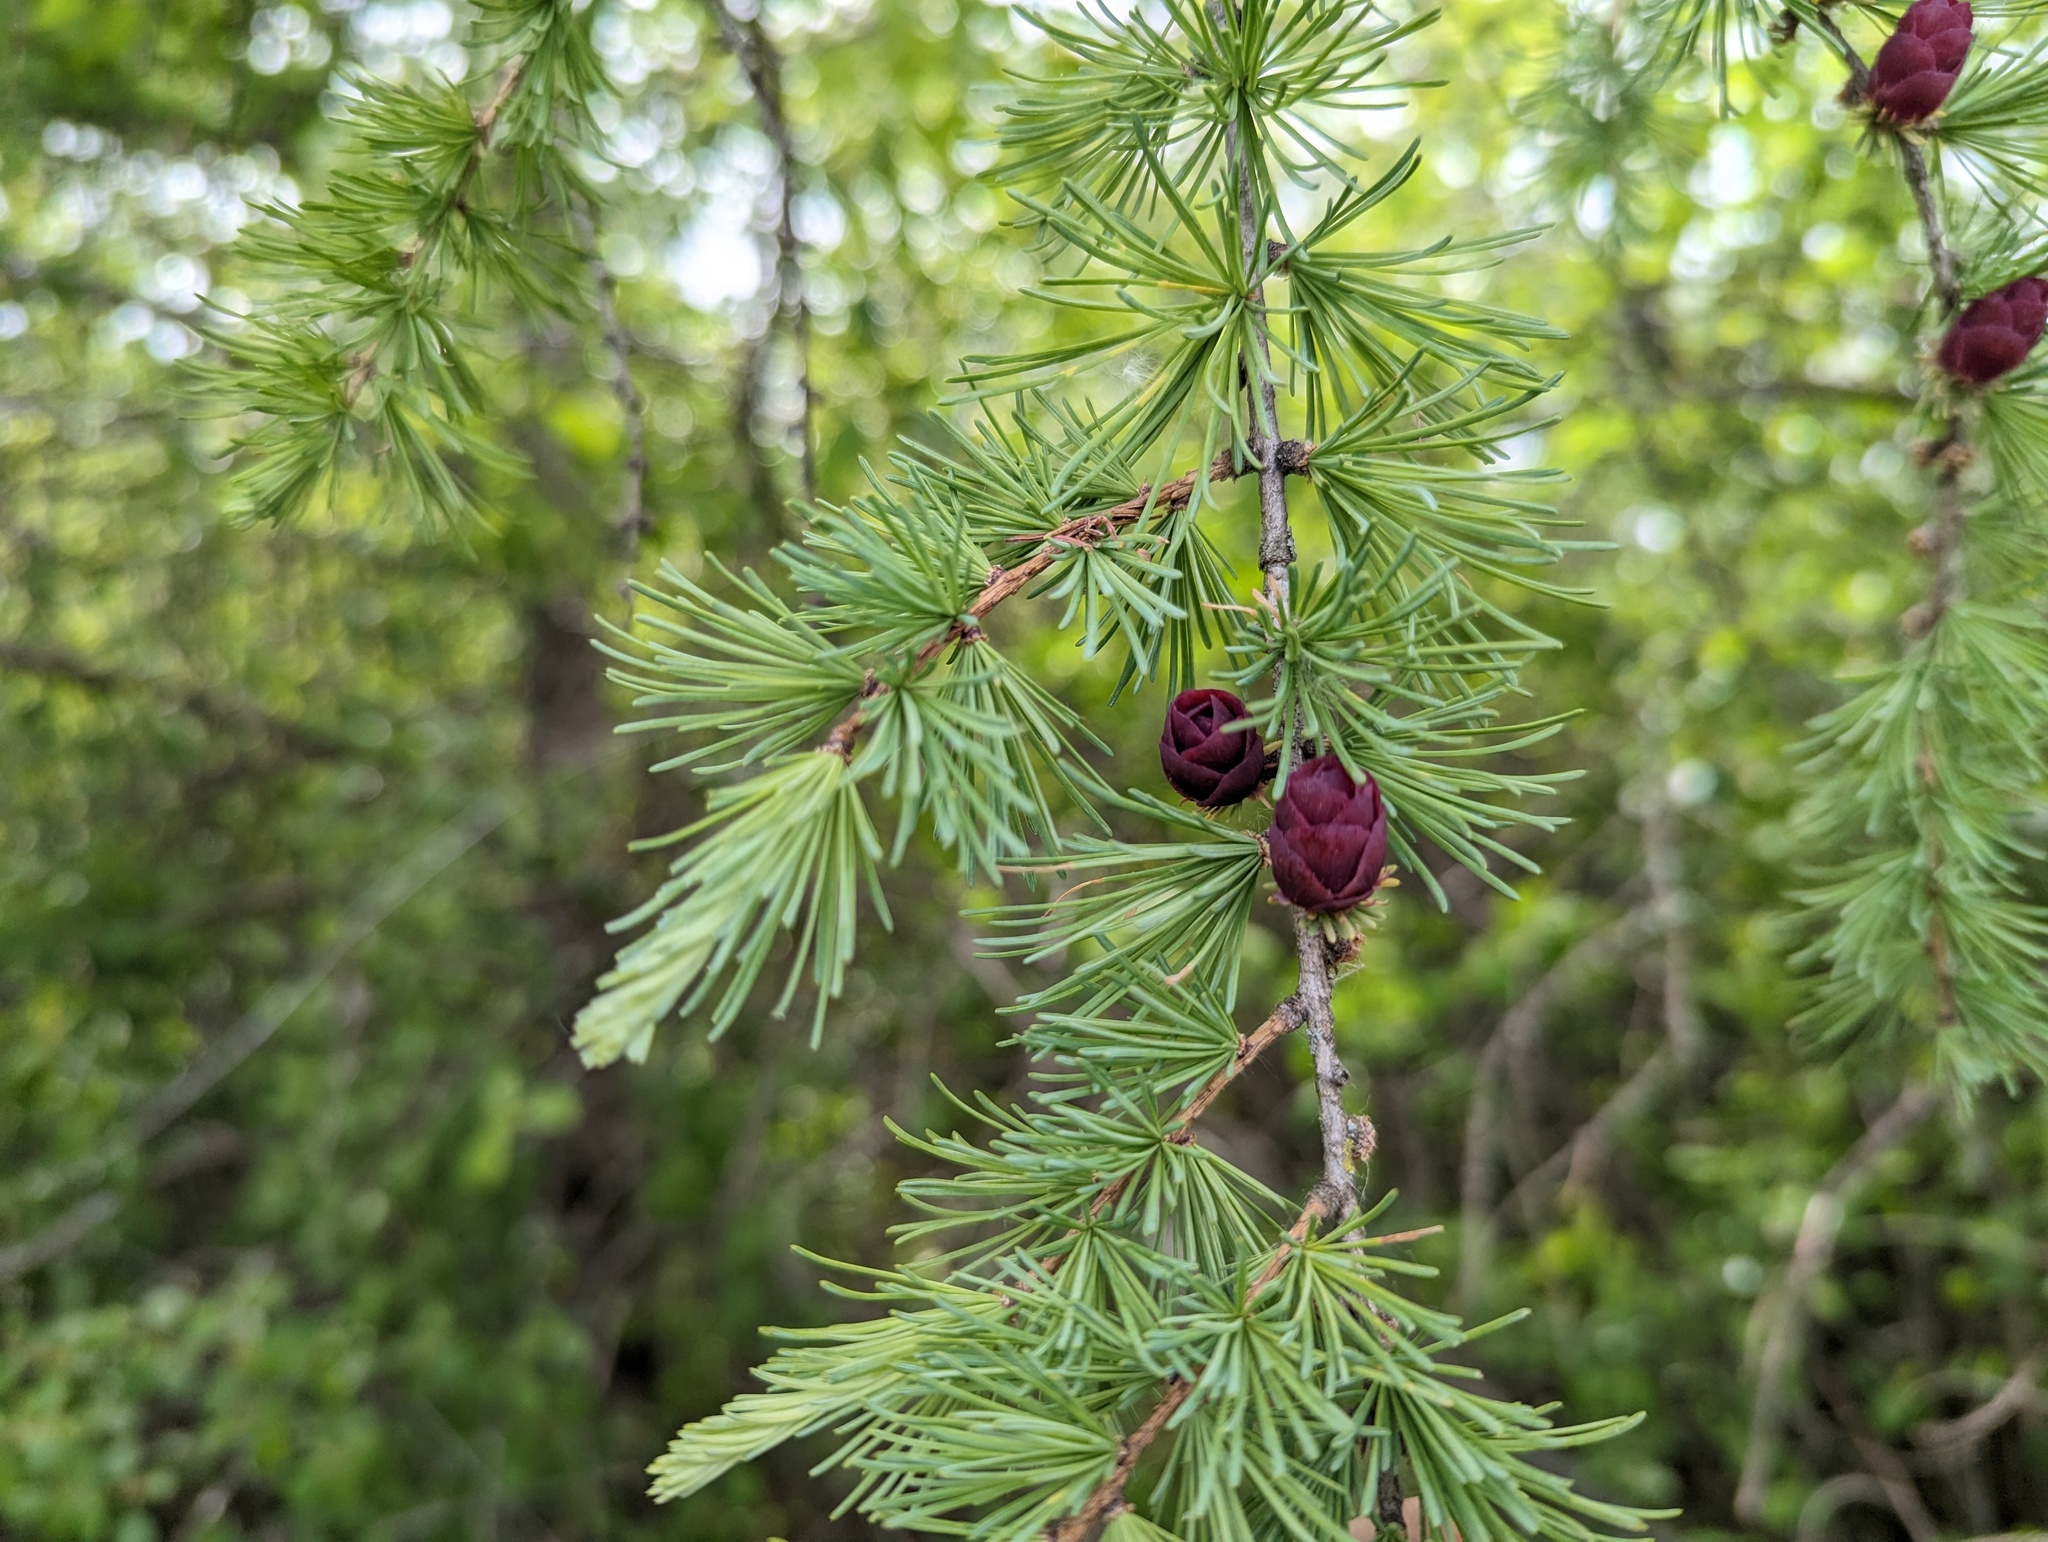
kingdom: Plantae
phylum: Tracheophyta
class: Pinopsida
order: Pinales
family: Pinaceae
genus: Larix
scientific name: Larix laricina
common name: American larch
